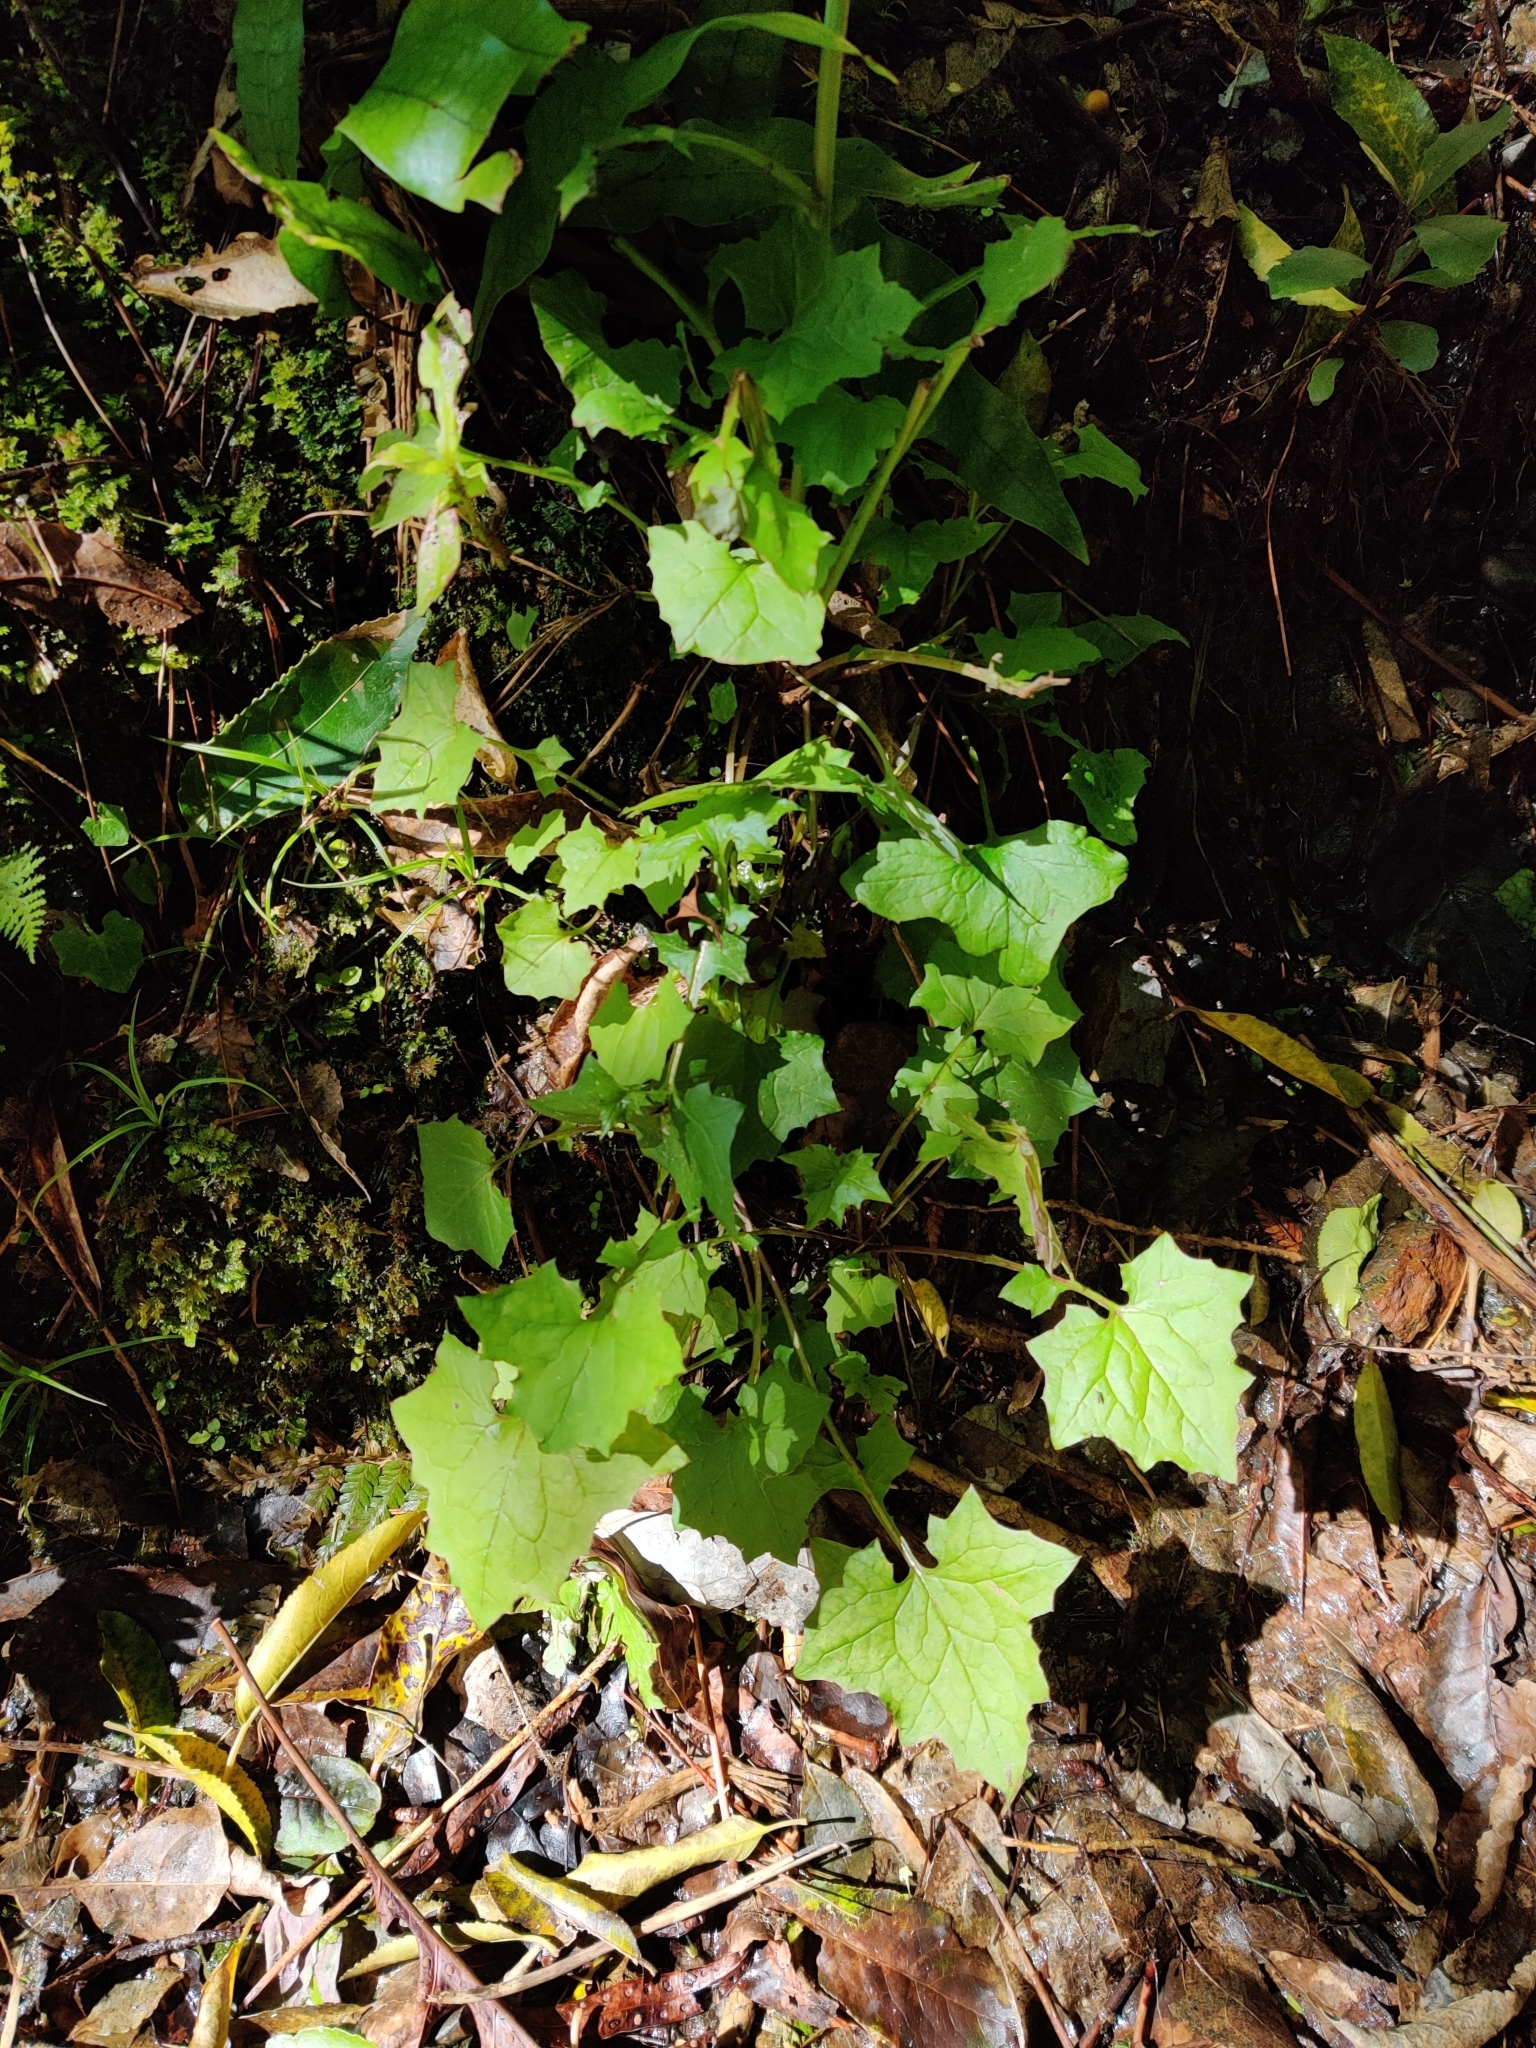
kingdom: Plantae
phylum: Tracheophyta
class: Magnoliopsida
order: Asterales
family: Asteraceae
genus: Mycelis
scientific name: Mycelis muralis
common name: Wall lettuce
